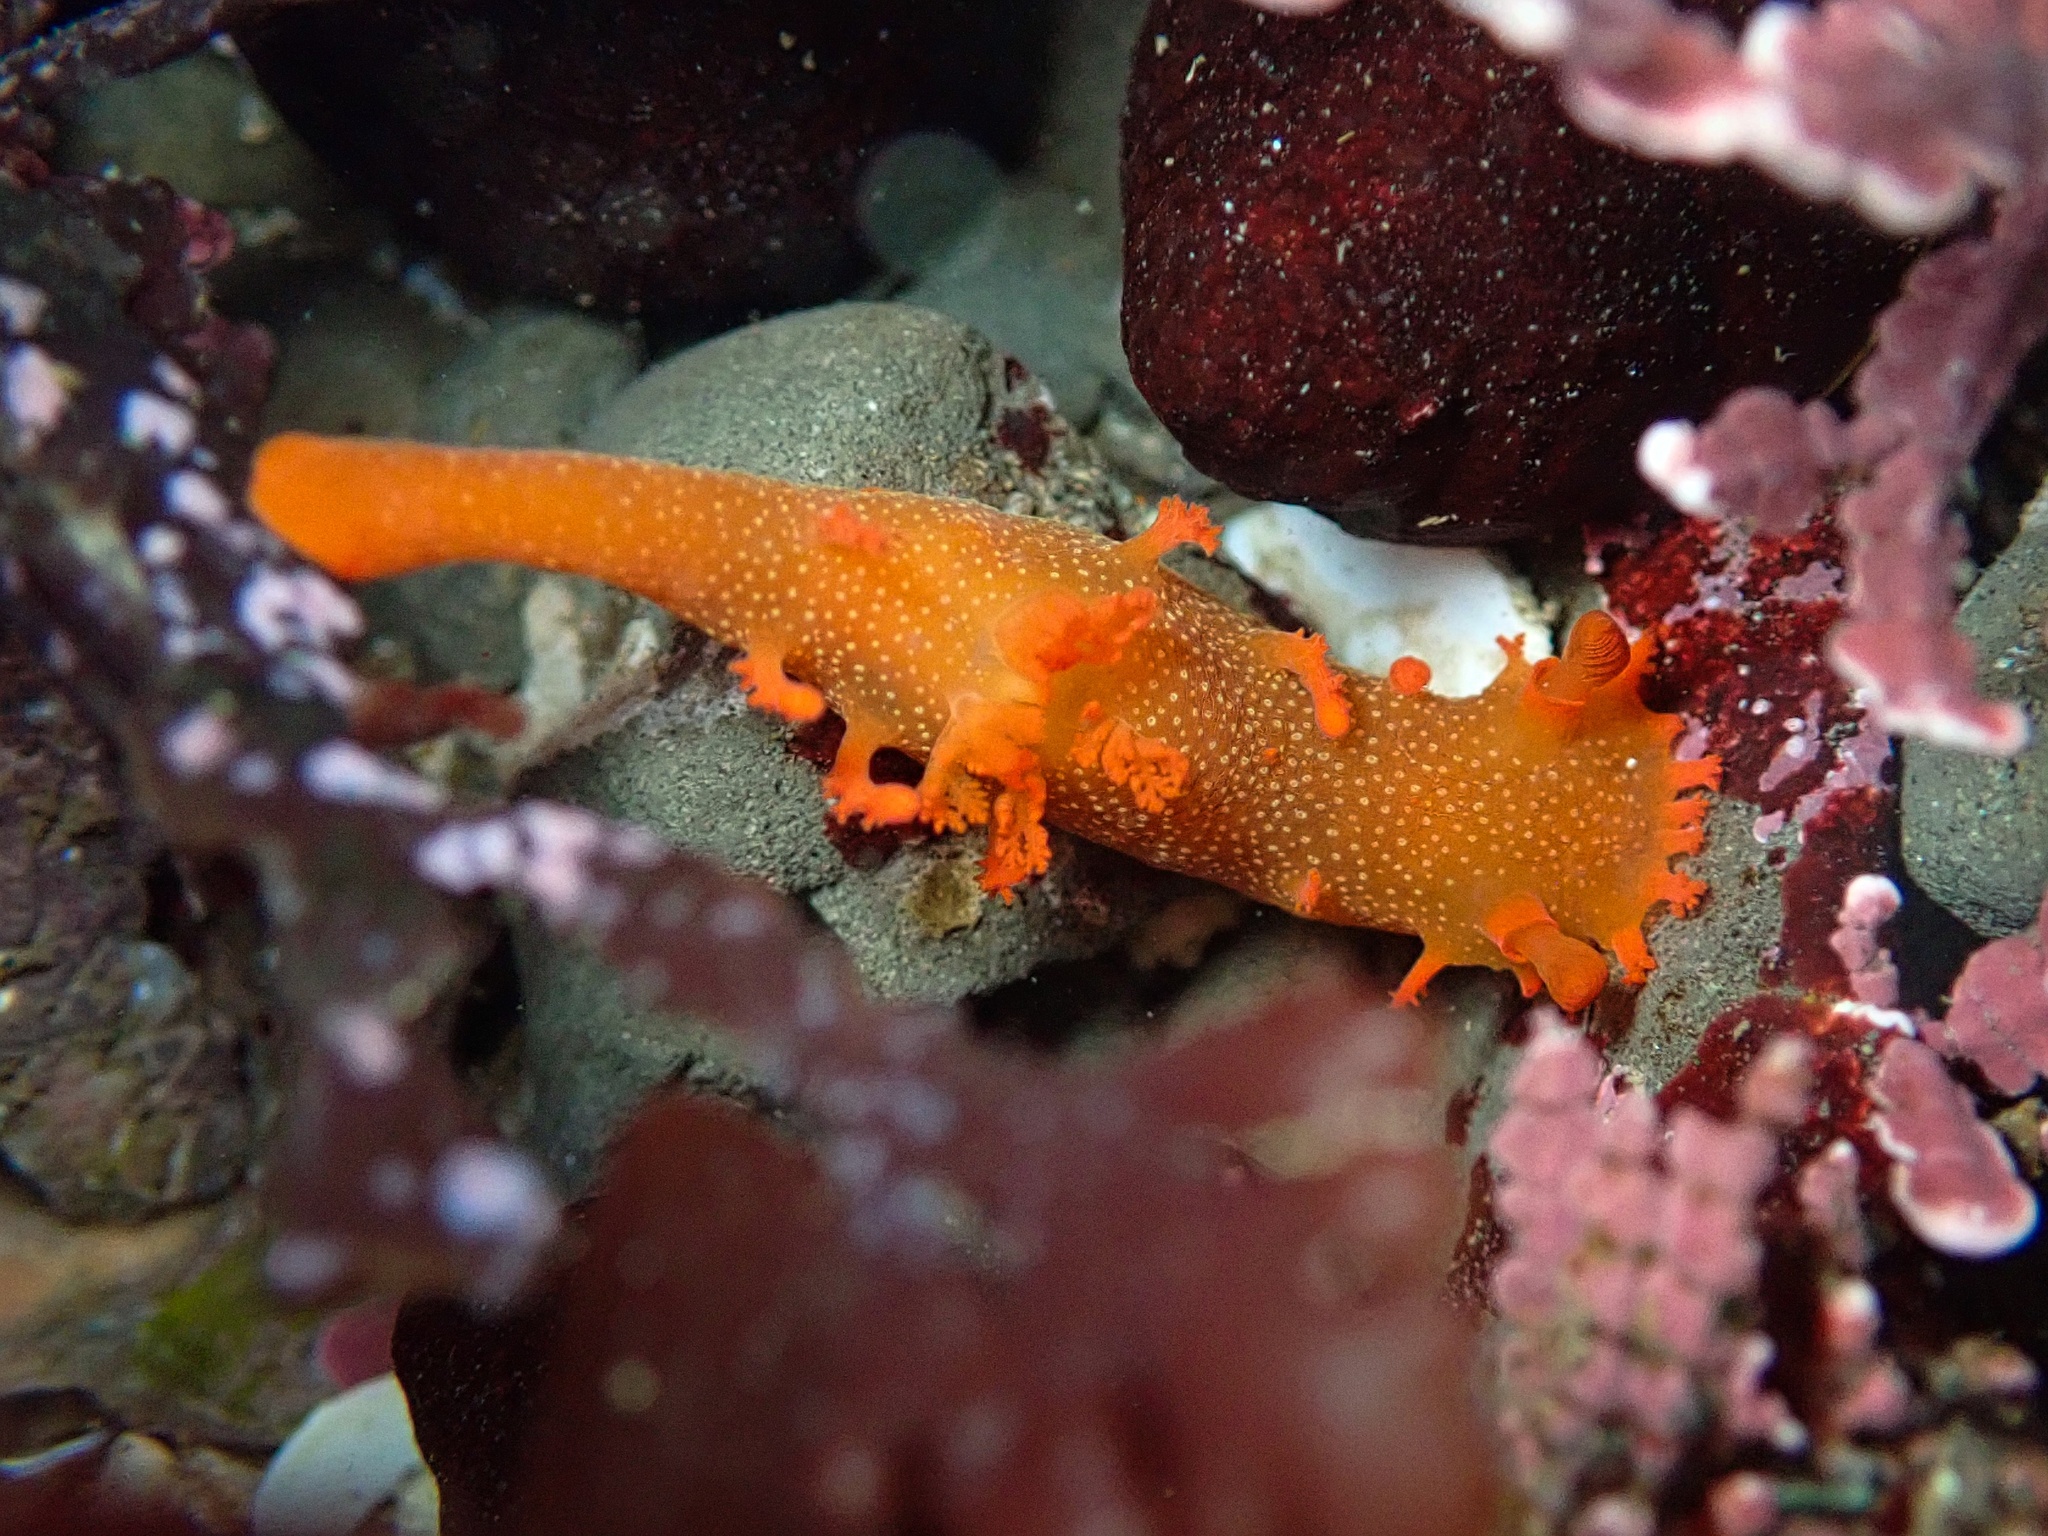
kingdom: Animalia
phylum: Mollusca
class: Gastropoda
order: Nudibranchia
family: Polyceridae
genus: Triopha
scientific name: Triopha maculata
